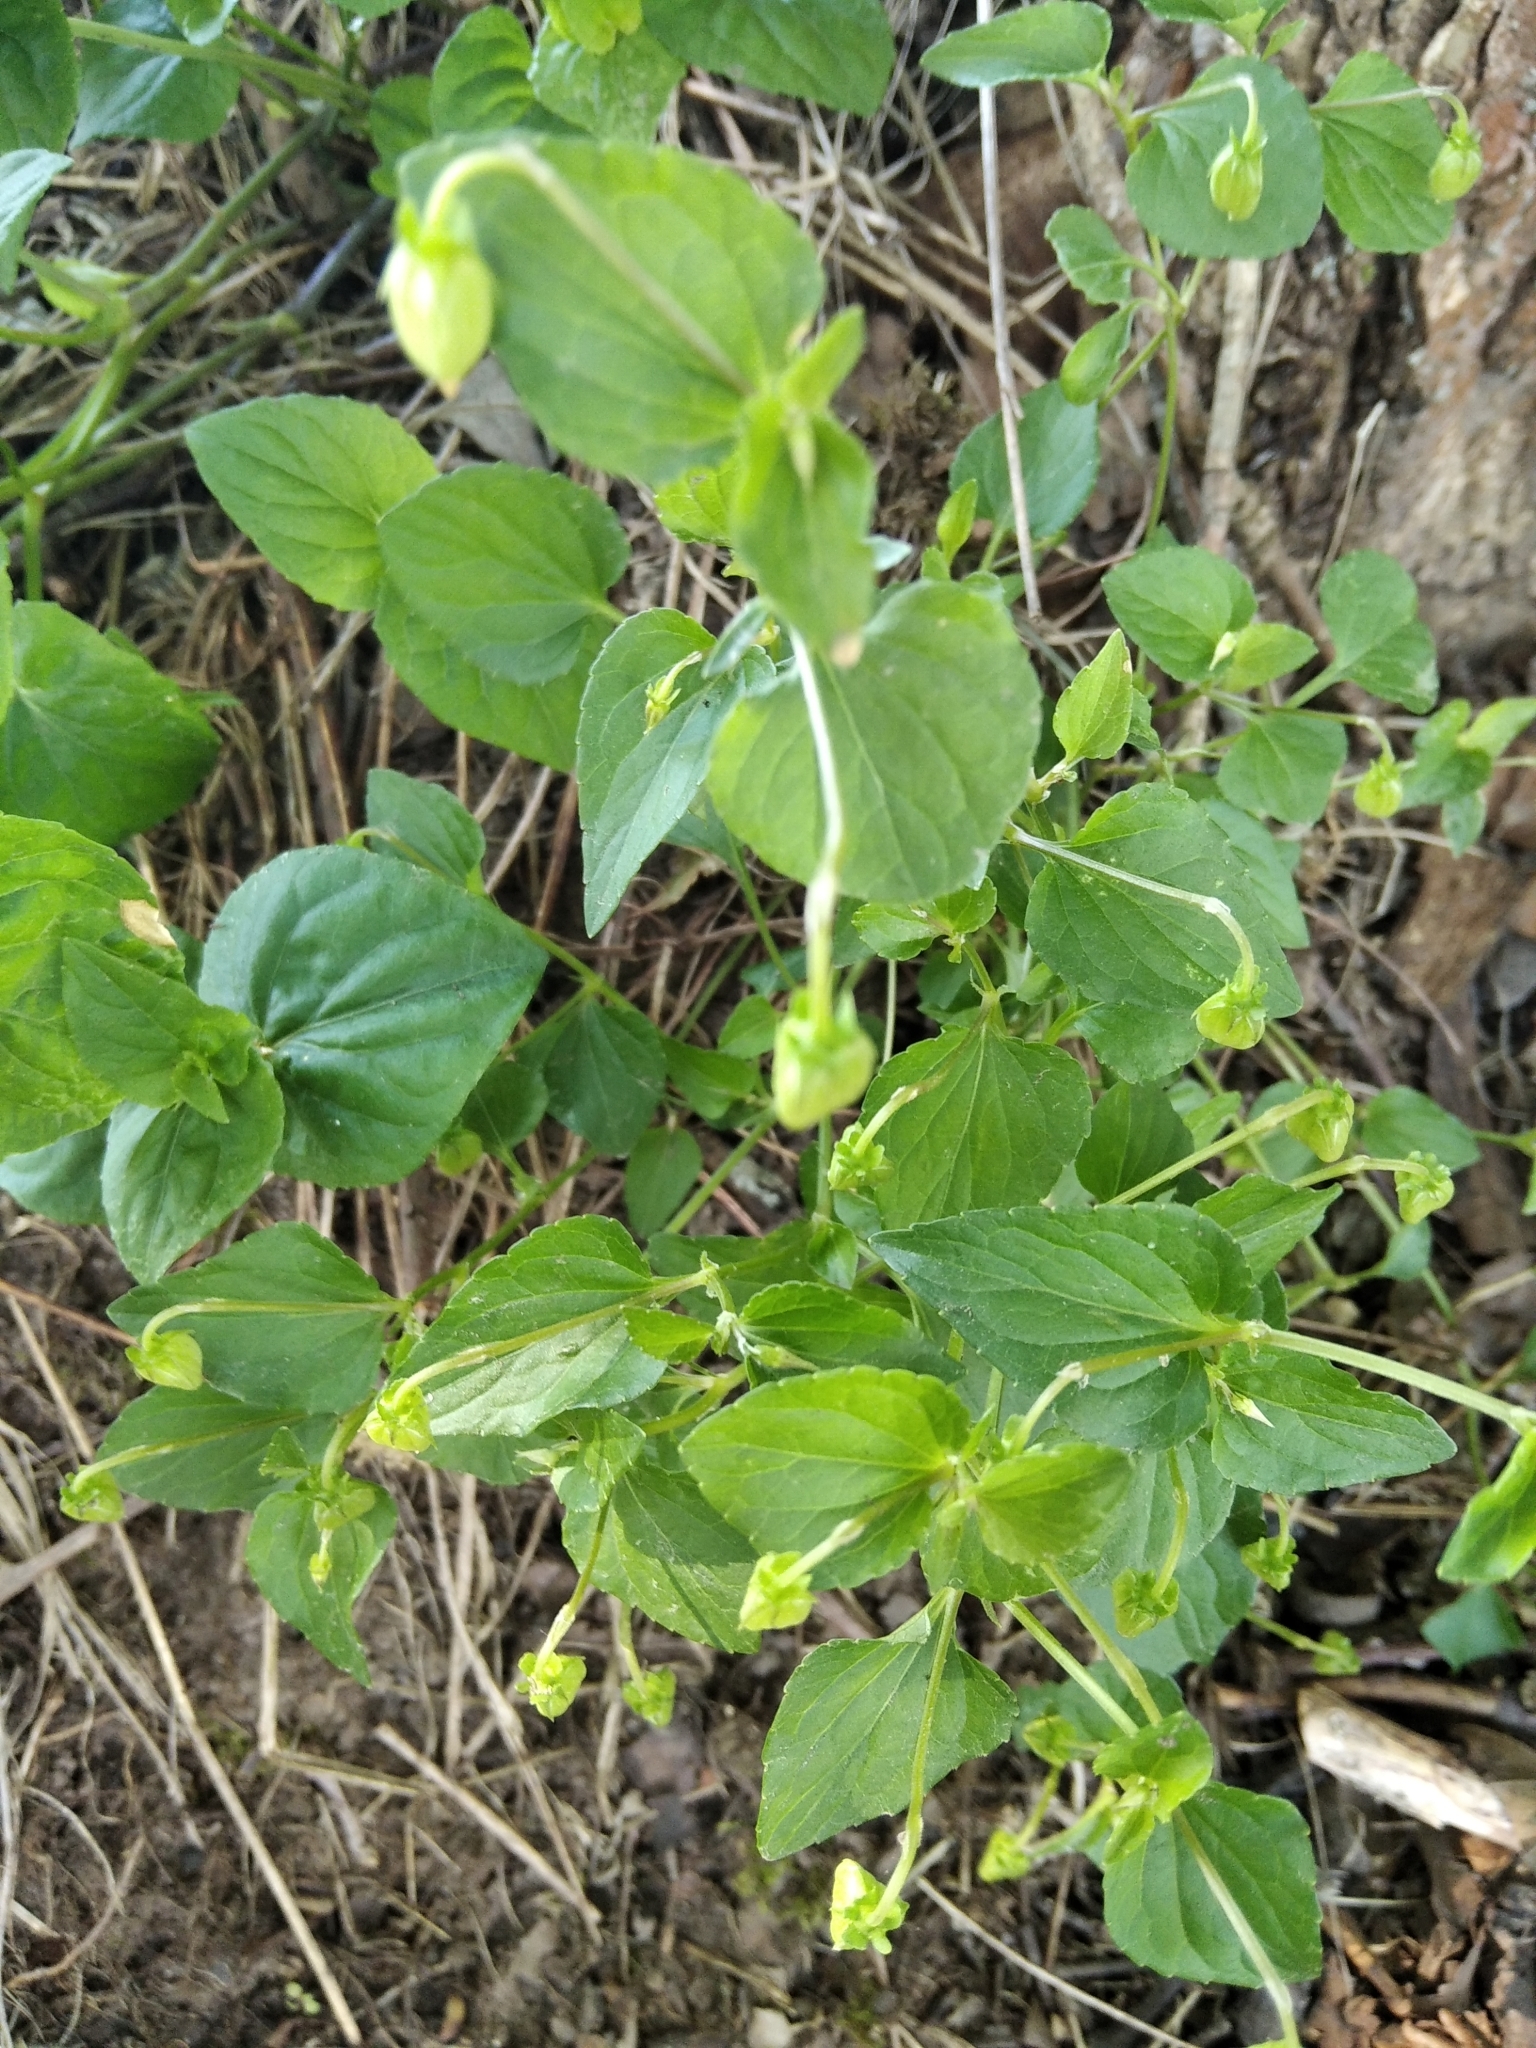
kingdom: Plantae
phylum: Tracheophyta
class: Magnoliopsida
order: Malpighiales
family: Violaceae
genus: Viola
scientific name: Viola canina
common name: Heath dog-violet
